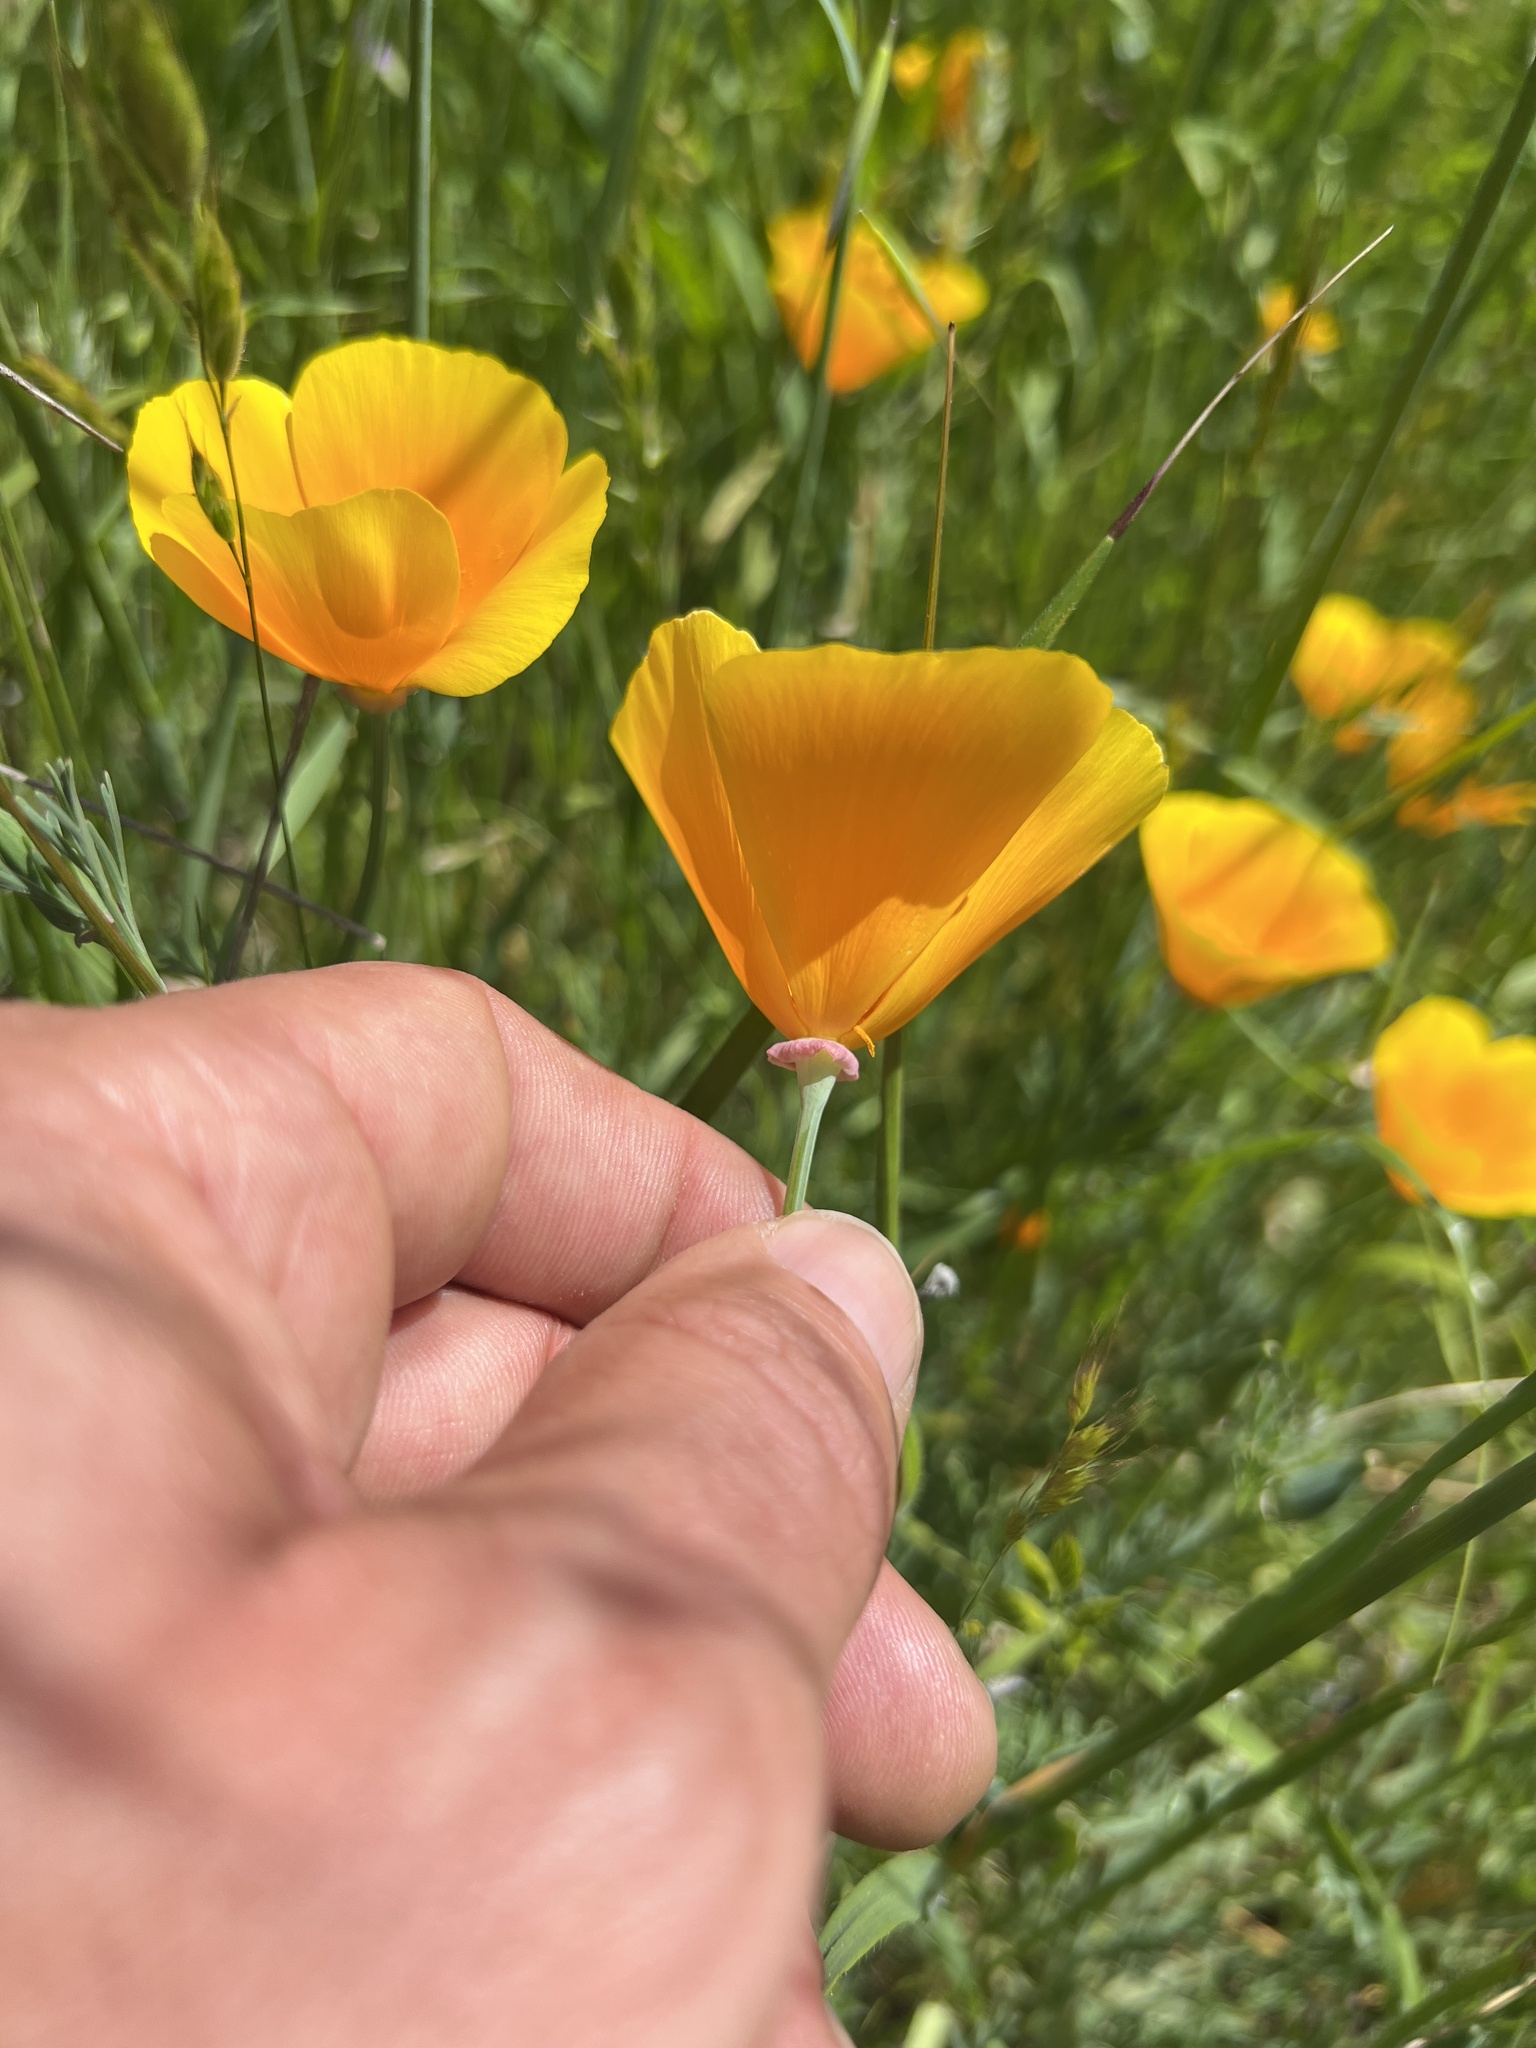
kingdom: Plantae
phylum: Tracheophyta
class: Magnoliopsida
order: Ranunculales
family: Papaveraceae
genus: Eschscholzia
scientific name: Eschscholzia californica
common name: California poppy
